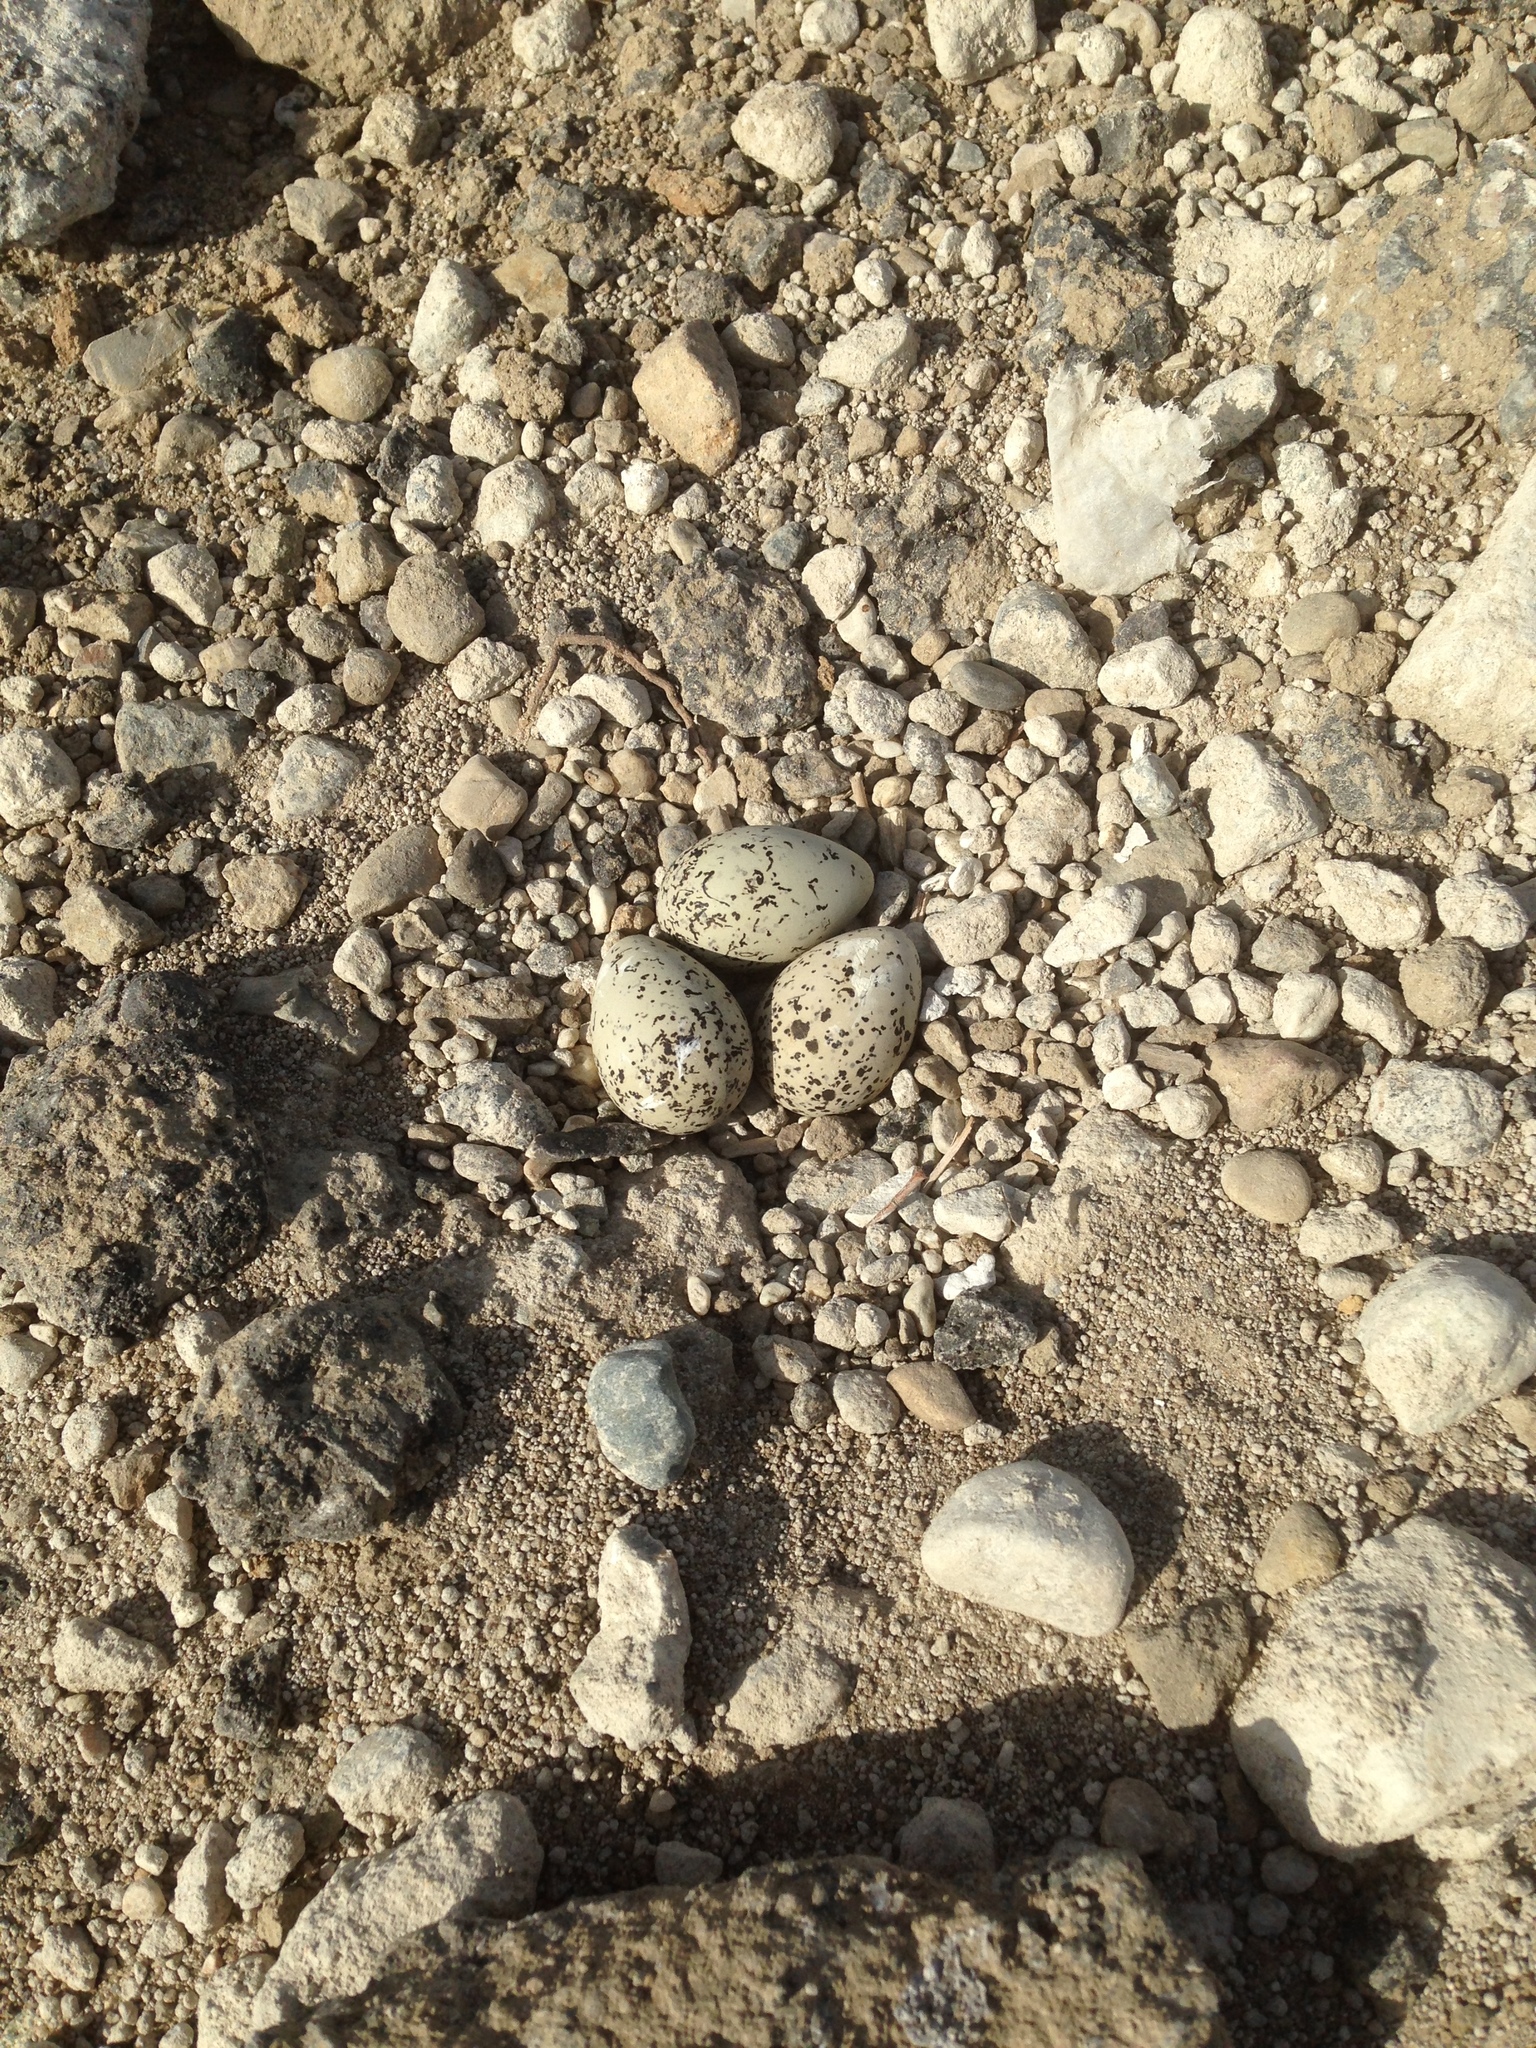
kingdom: Animalia
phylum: Chordata
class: Aves
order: Charadriiformes
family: Charadriidae
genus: Charadrius
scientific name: Charadrius vociferus
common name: Killdeer
